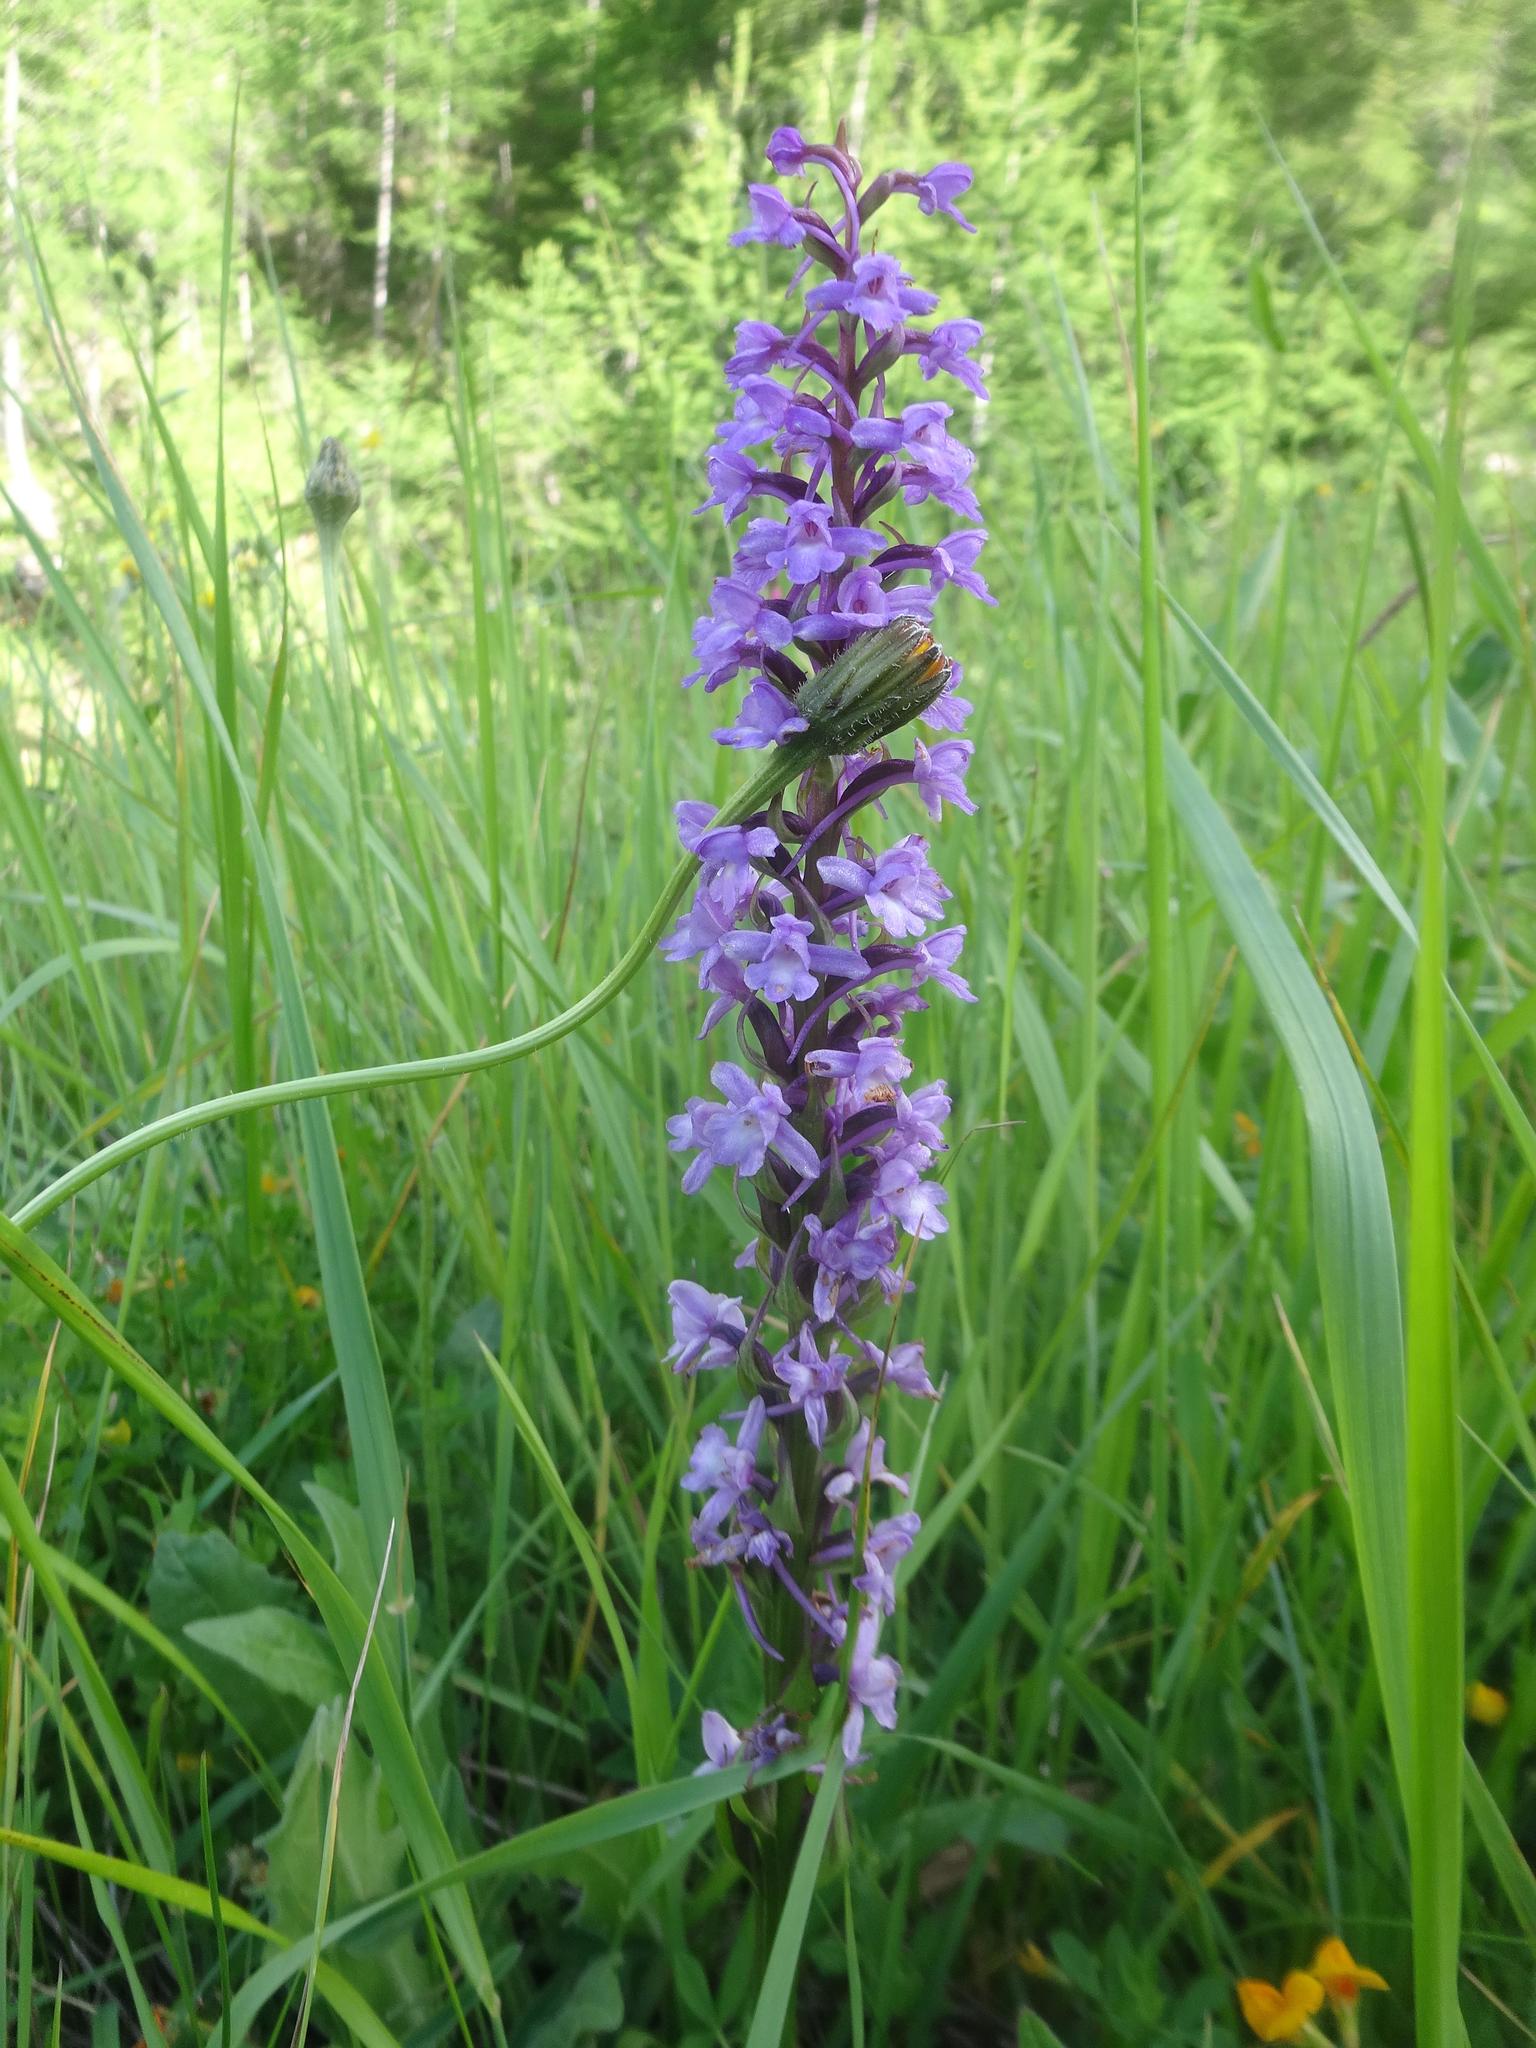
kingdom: Plantae
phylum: Tracheophyta
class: Liliopsida
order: Asparagales
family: Orchidaceae
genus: Gymnadenia
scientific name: Gymnadenia conopsea
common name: Fragrant orchid
